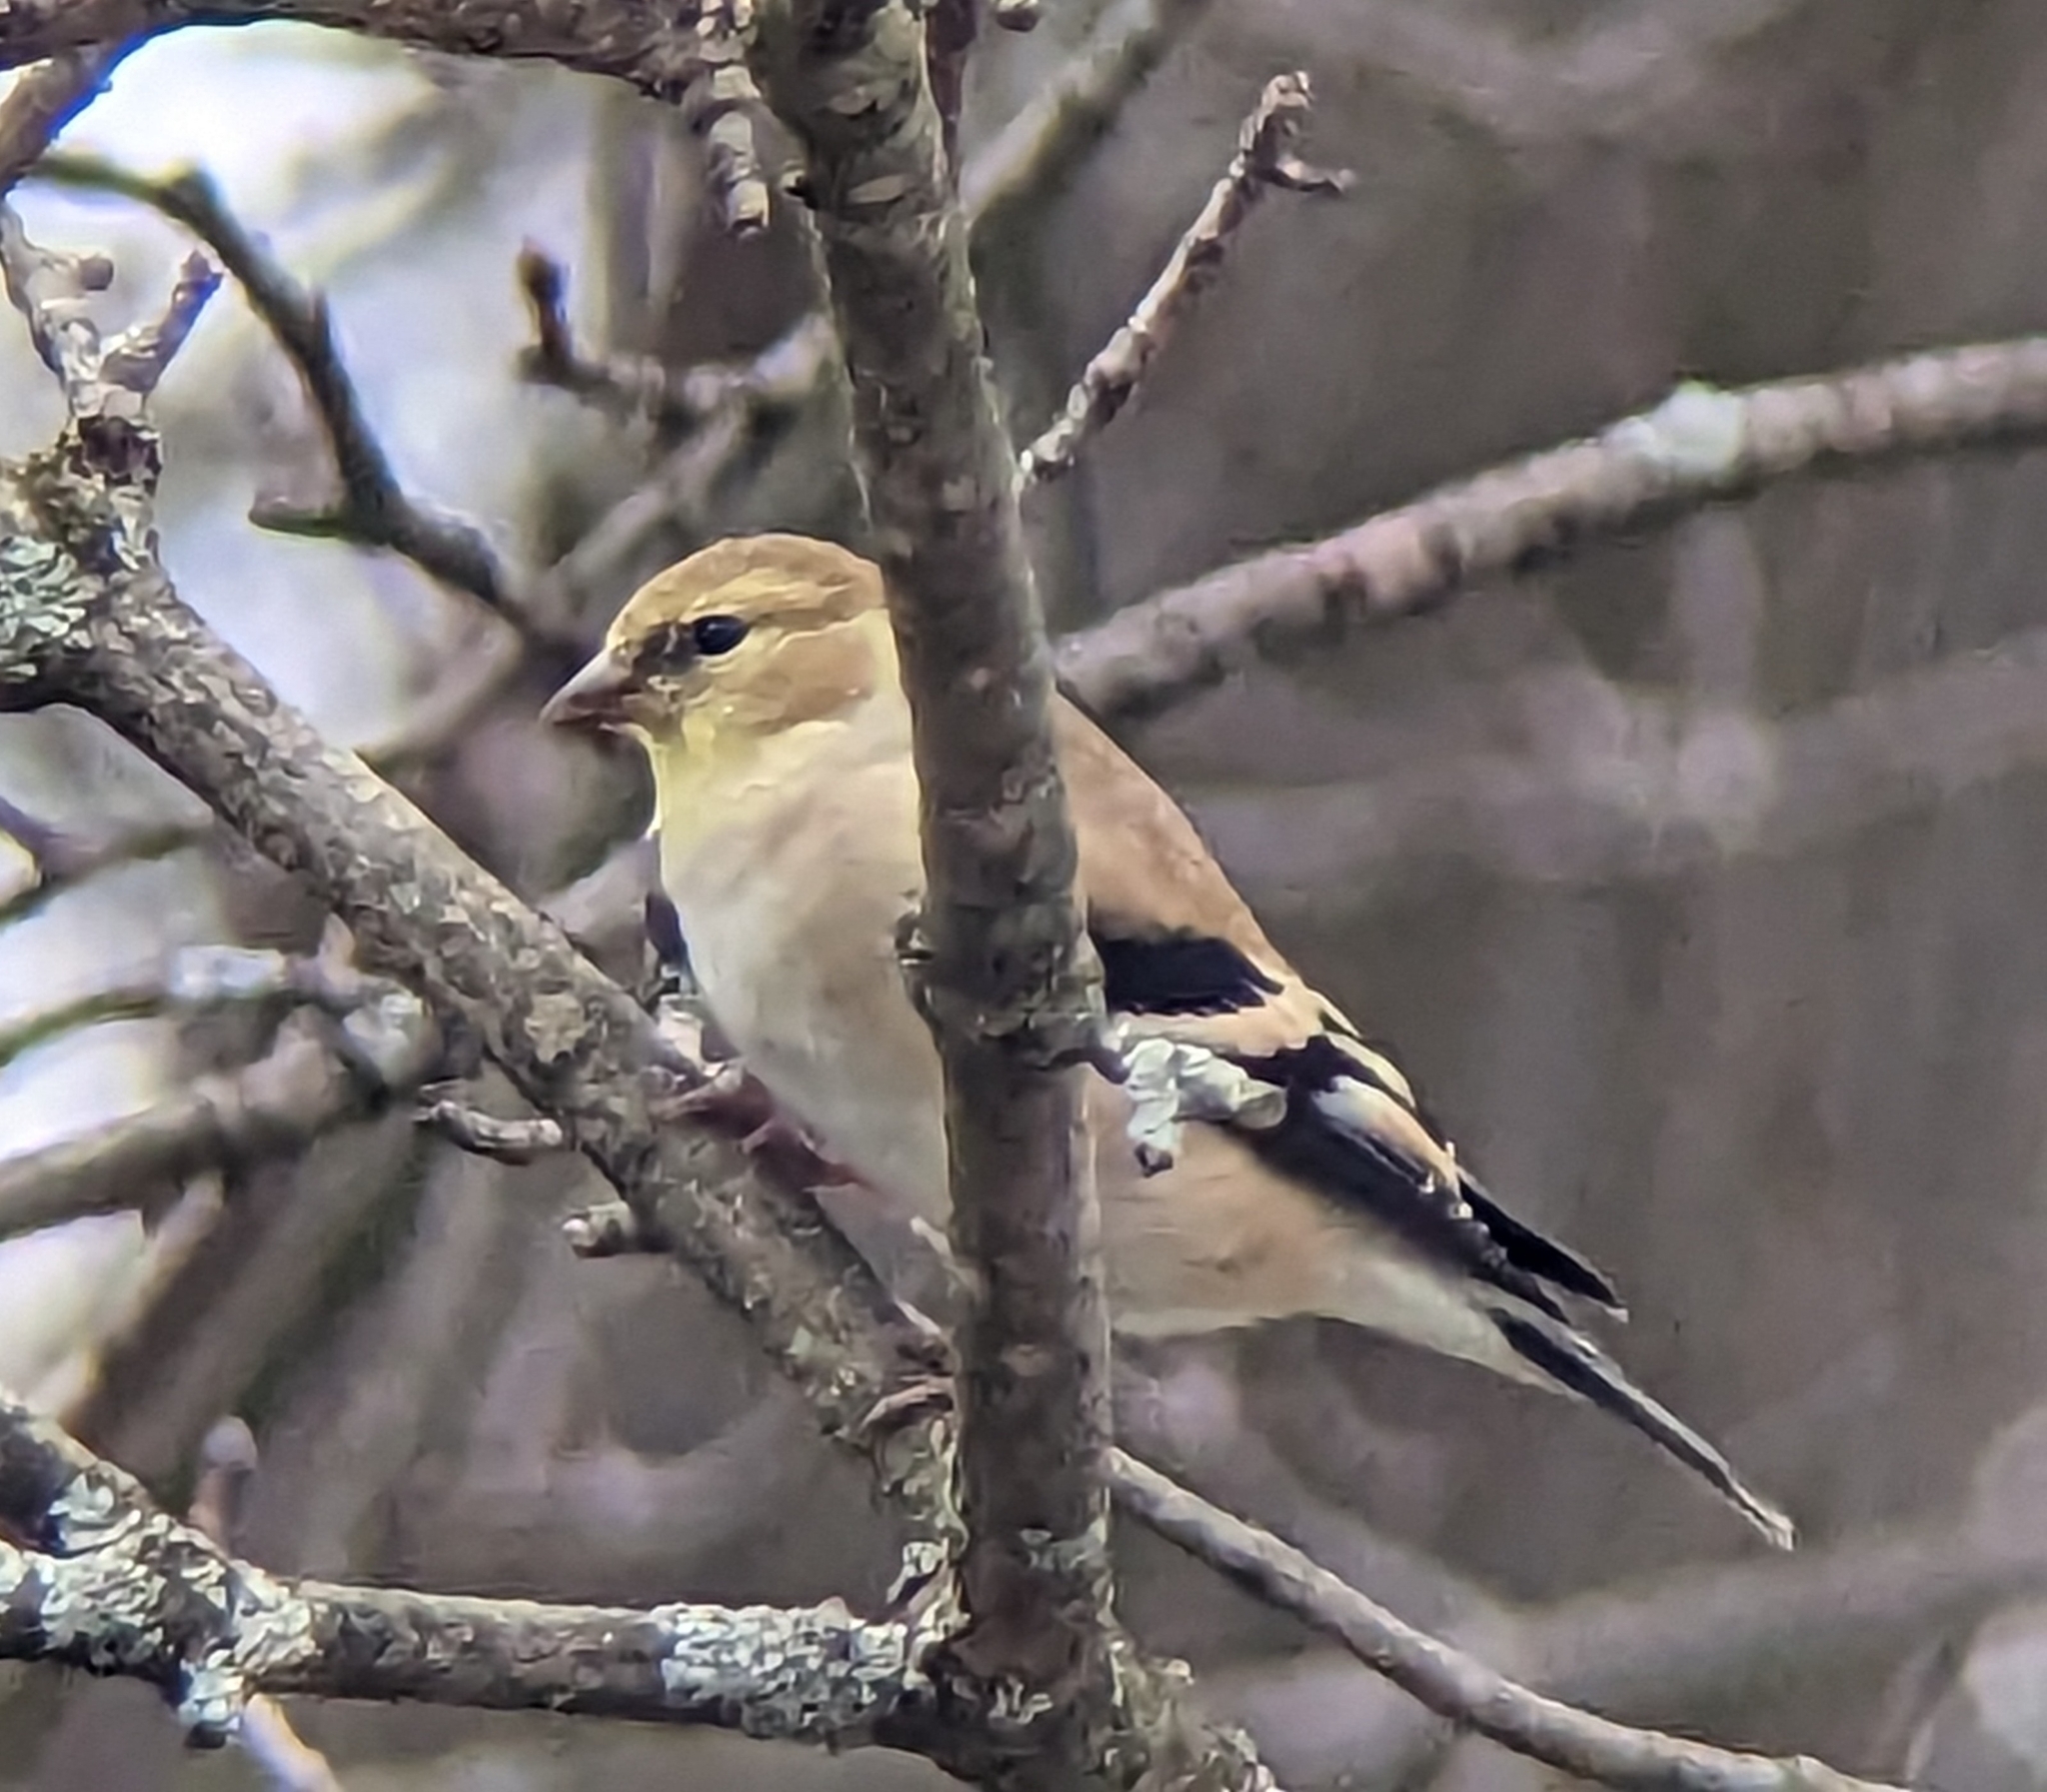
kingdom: Animalia
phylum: Chordata
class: Aves
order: Passeriformes
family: Fringillidae
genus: Spinus
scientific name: Spinus tristis
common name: American goldfinch
